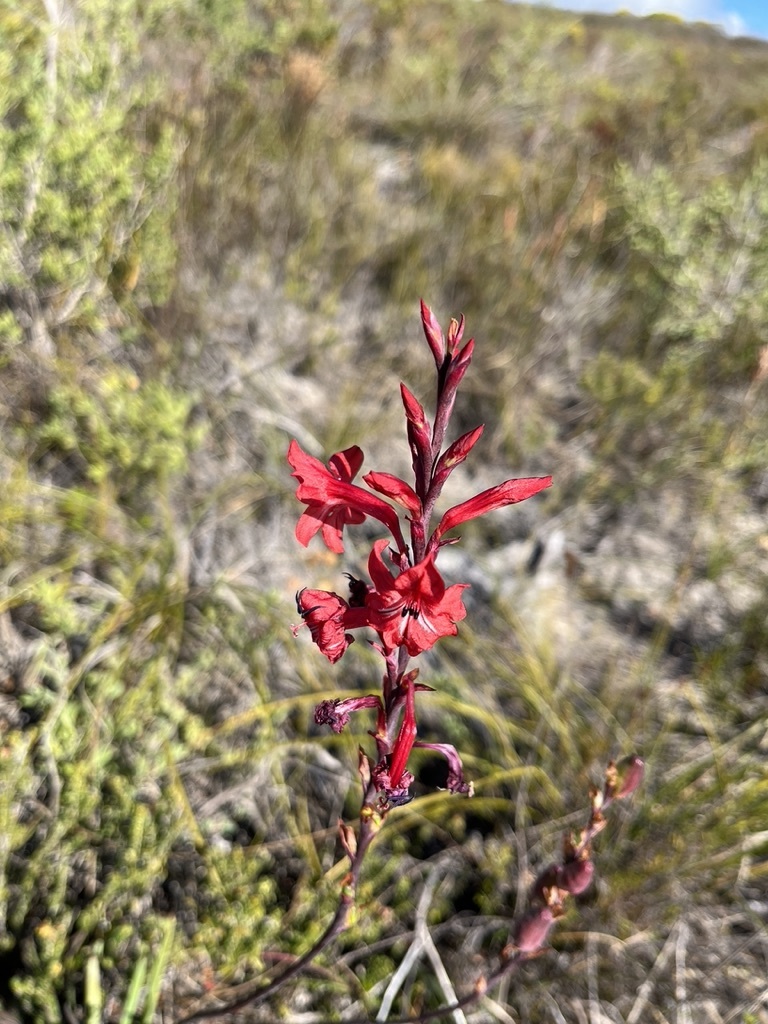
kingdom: Plantae
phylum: Tracheophyta
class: Liliopsida
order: Asparagales
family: Iridaceae
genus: Tritoniopsis
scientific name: Tritoniopsis pulchra
